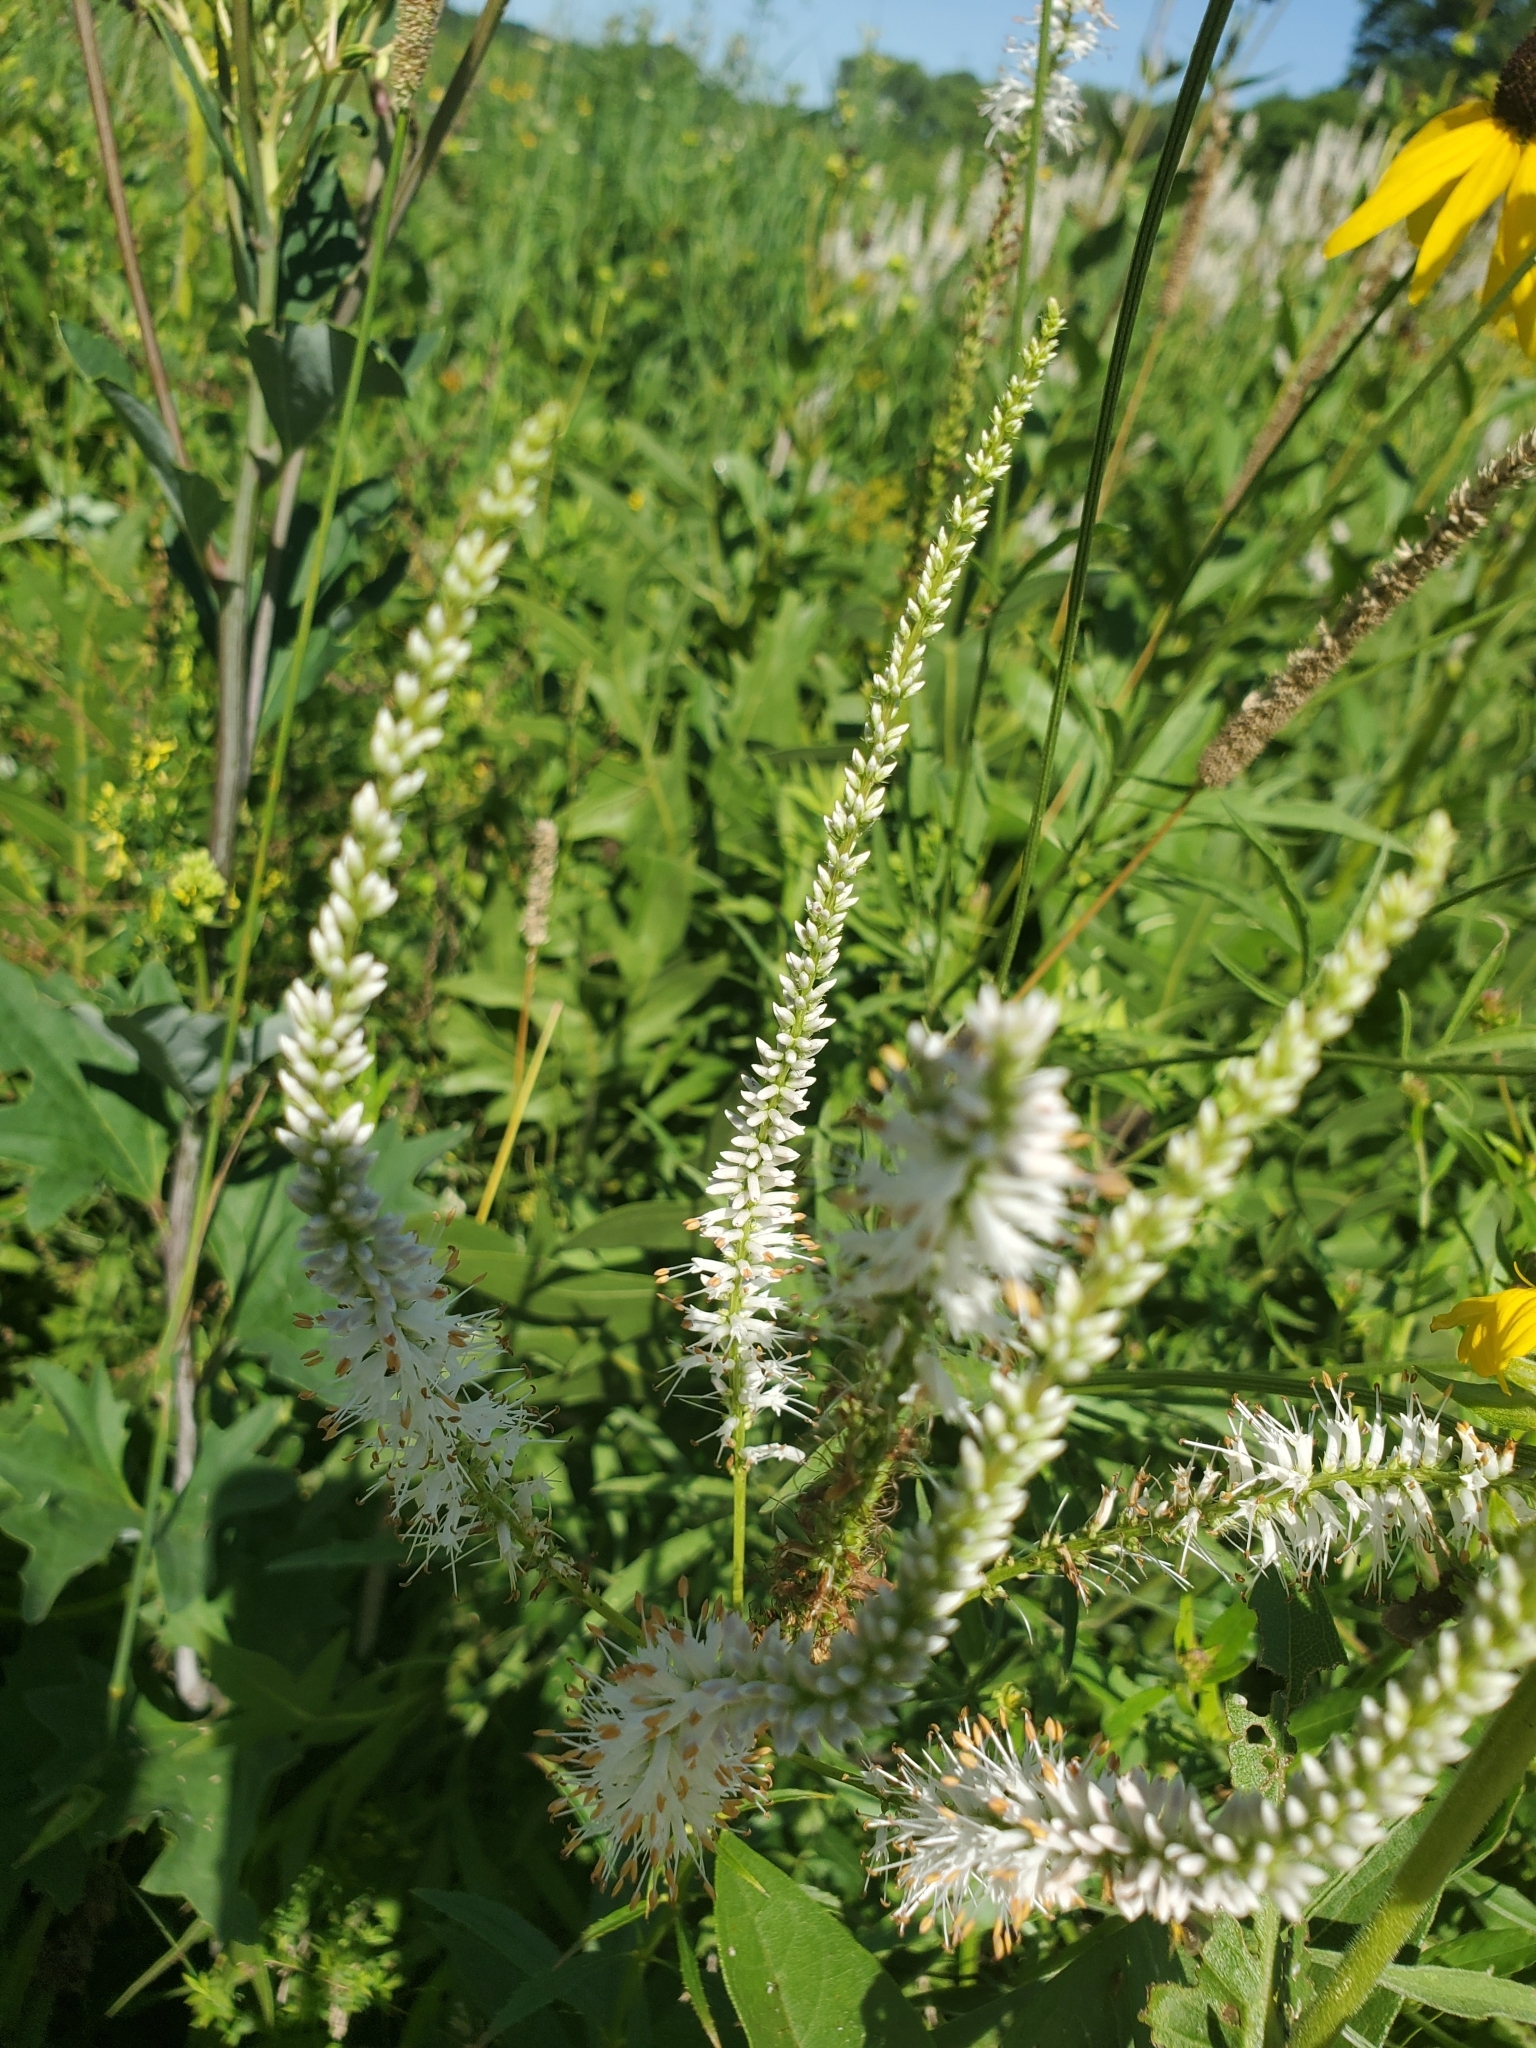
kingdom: Plantae
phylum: Tracheophyta
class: Magnoliopsida
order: Lamiales
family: Plantaginaceae
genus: Veronicastrum
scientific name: Veronicastrum virginicum
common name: Blackroot
